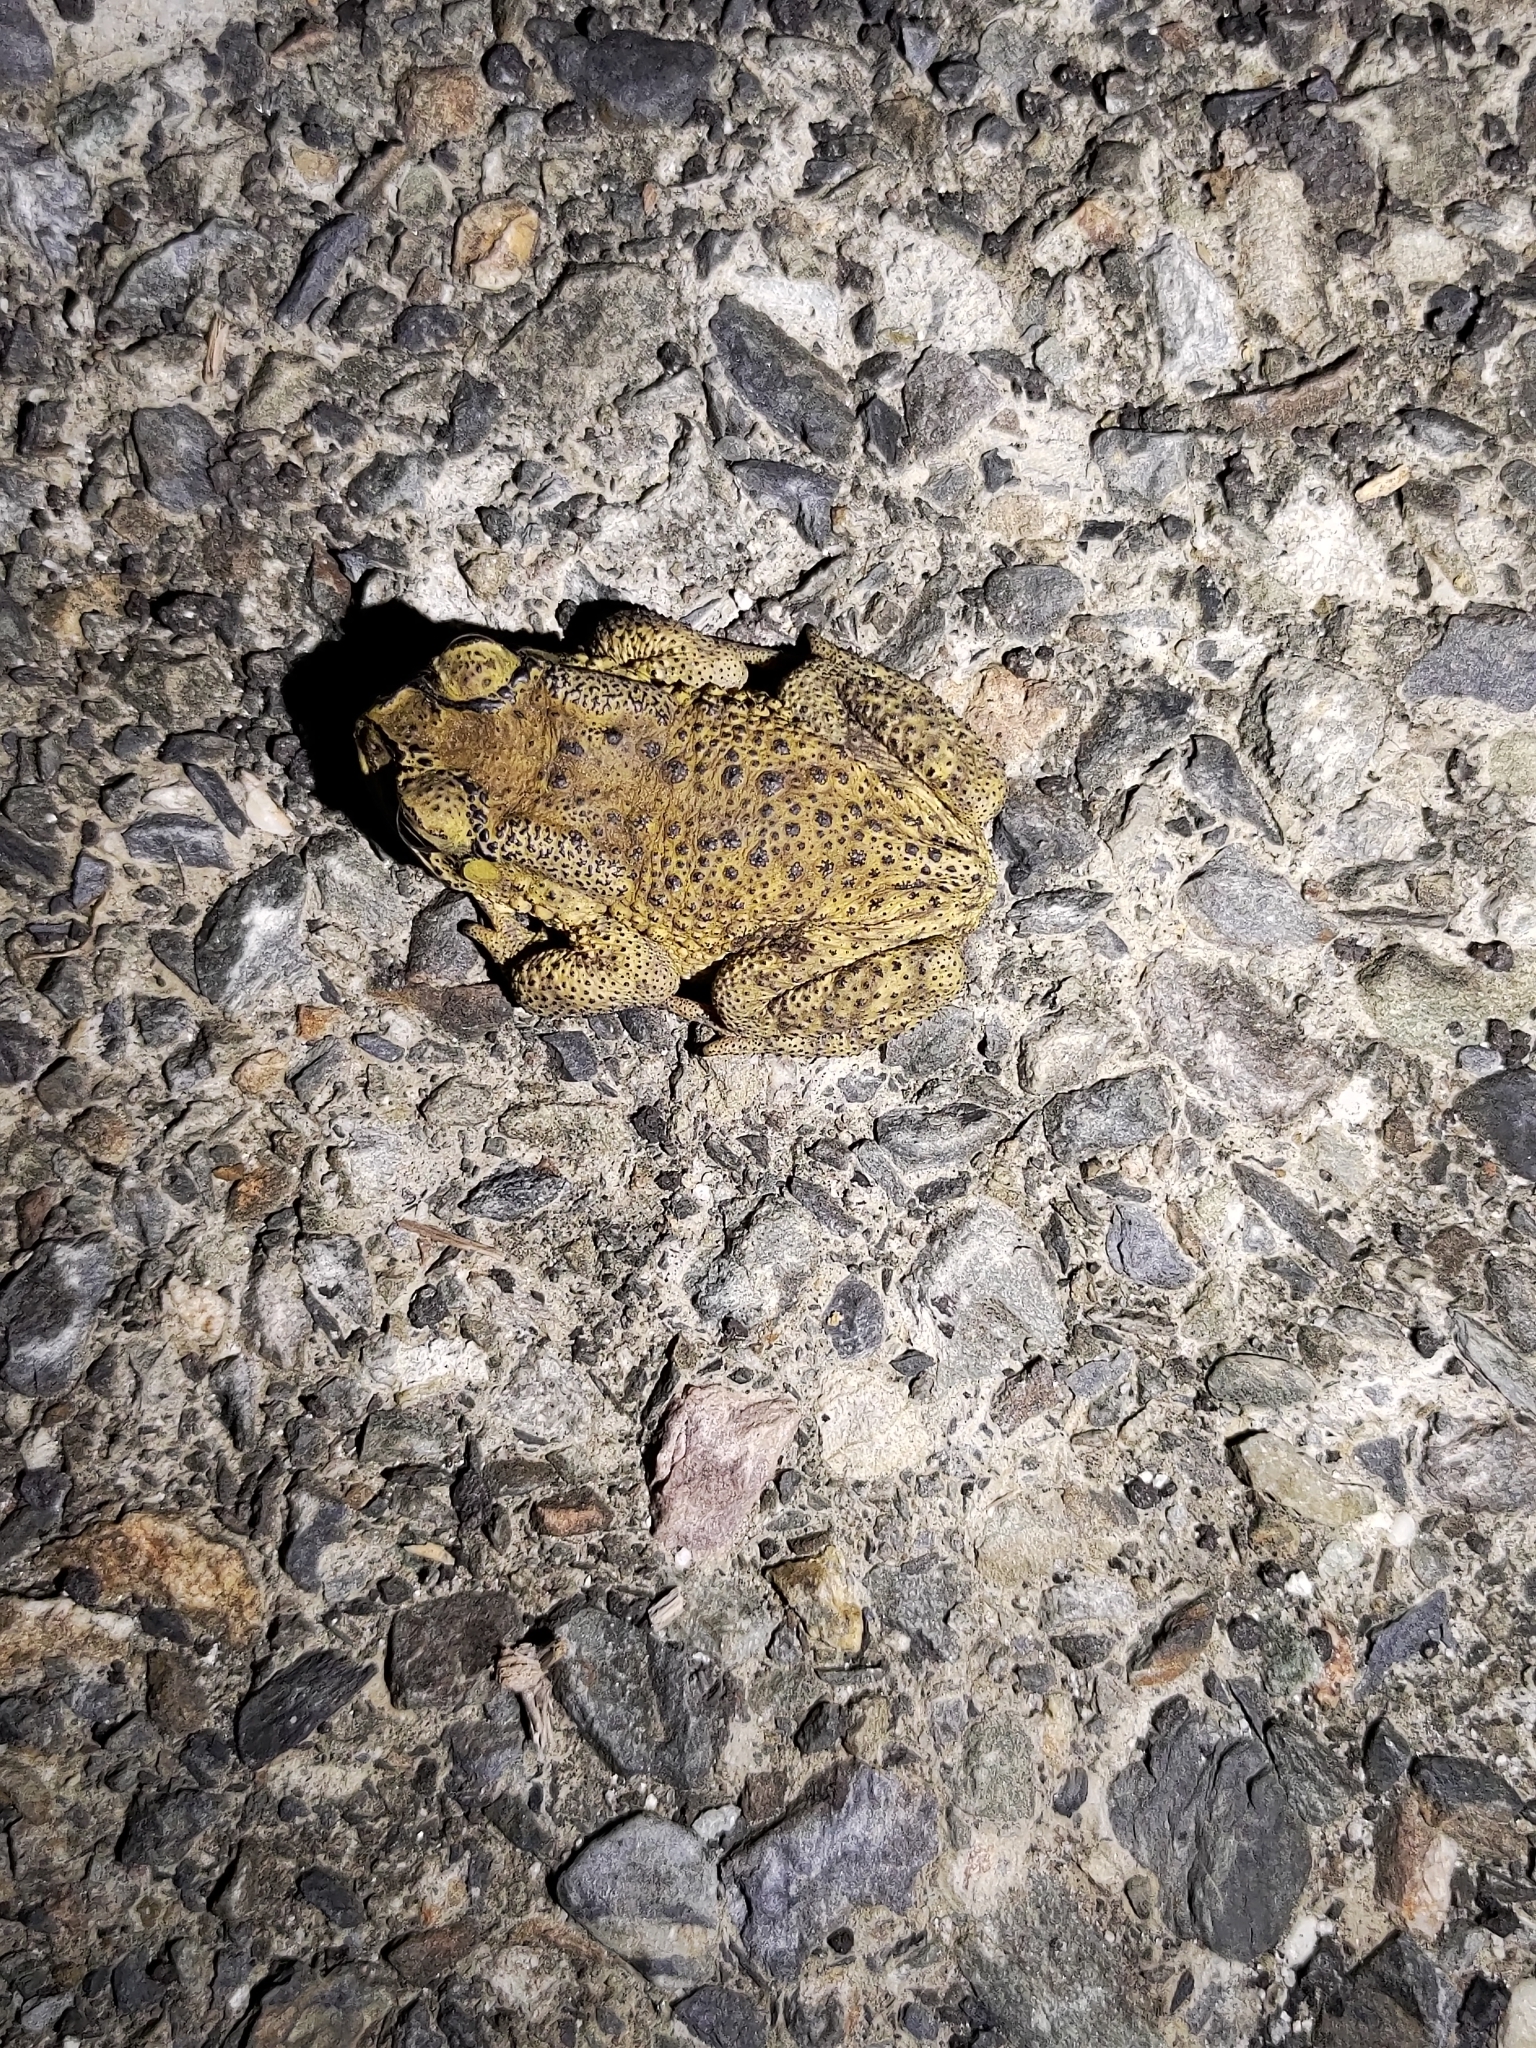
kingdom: Animalia
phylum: Chordata
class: Amphibia
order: Anura
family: Bufonidae
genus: Duttaphrynus
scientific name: Duttaphrynus melanostictus
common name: Common sunda toad
